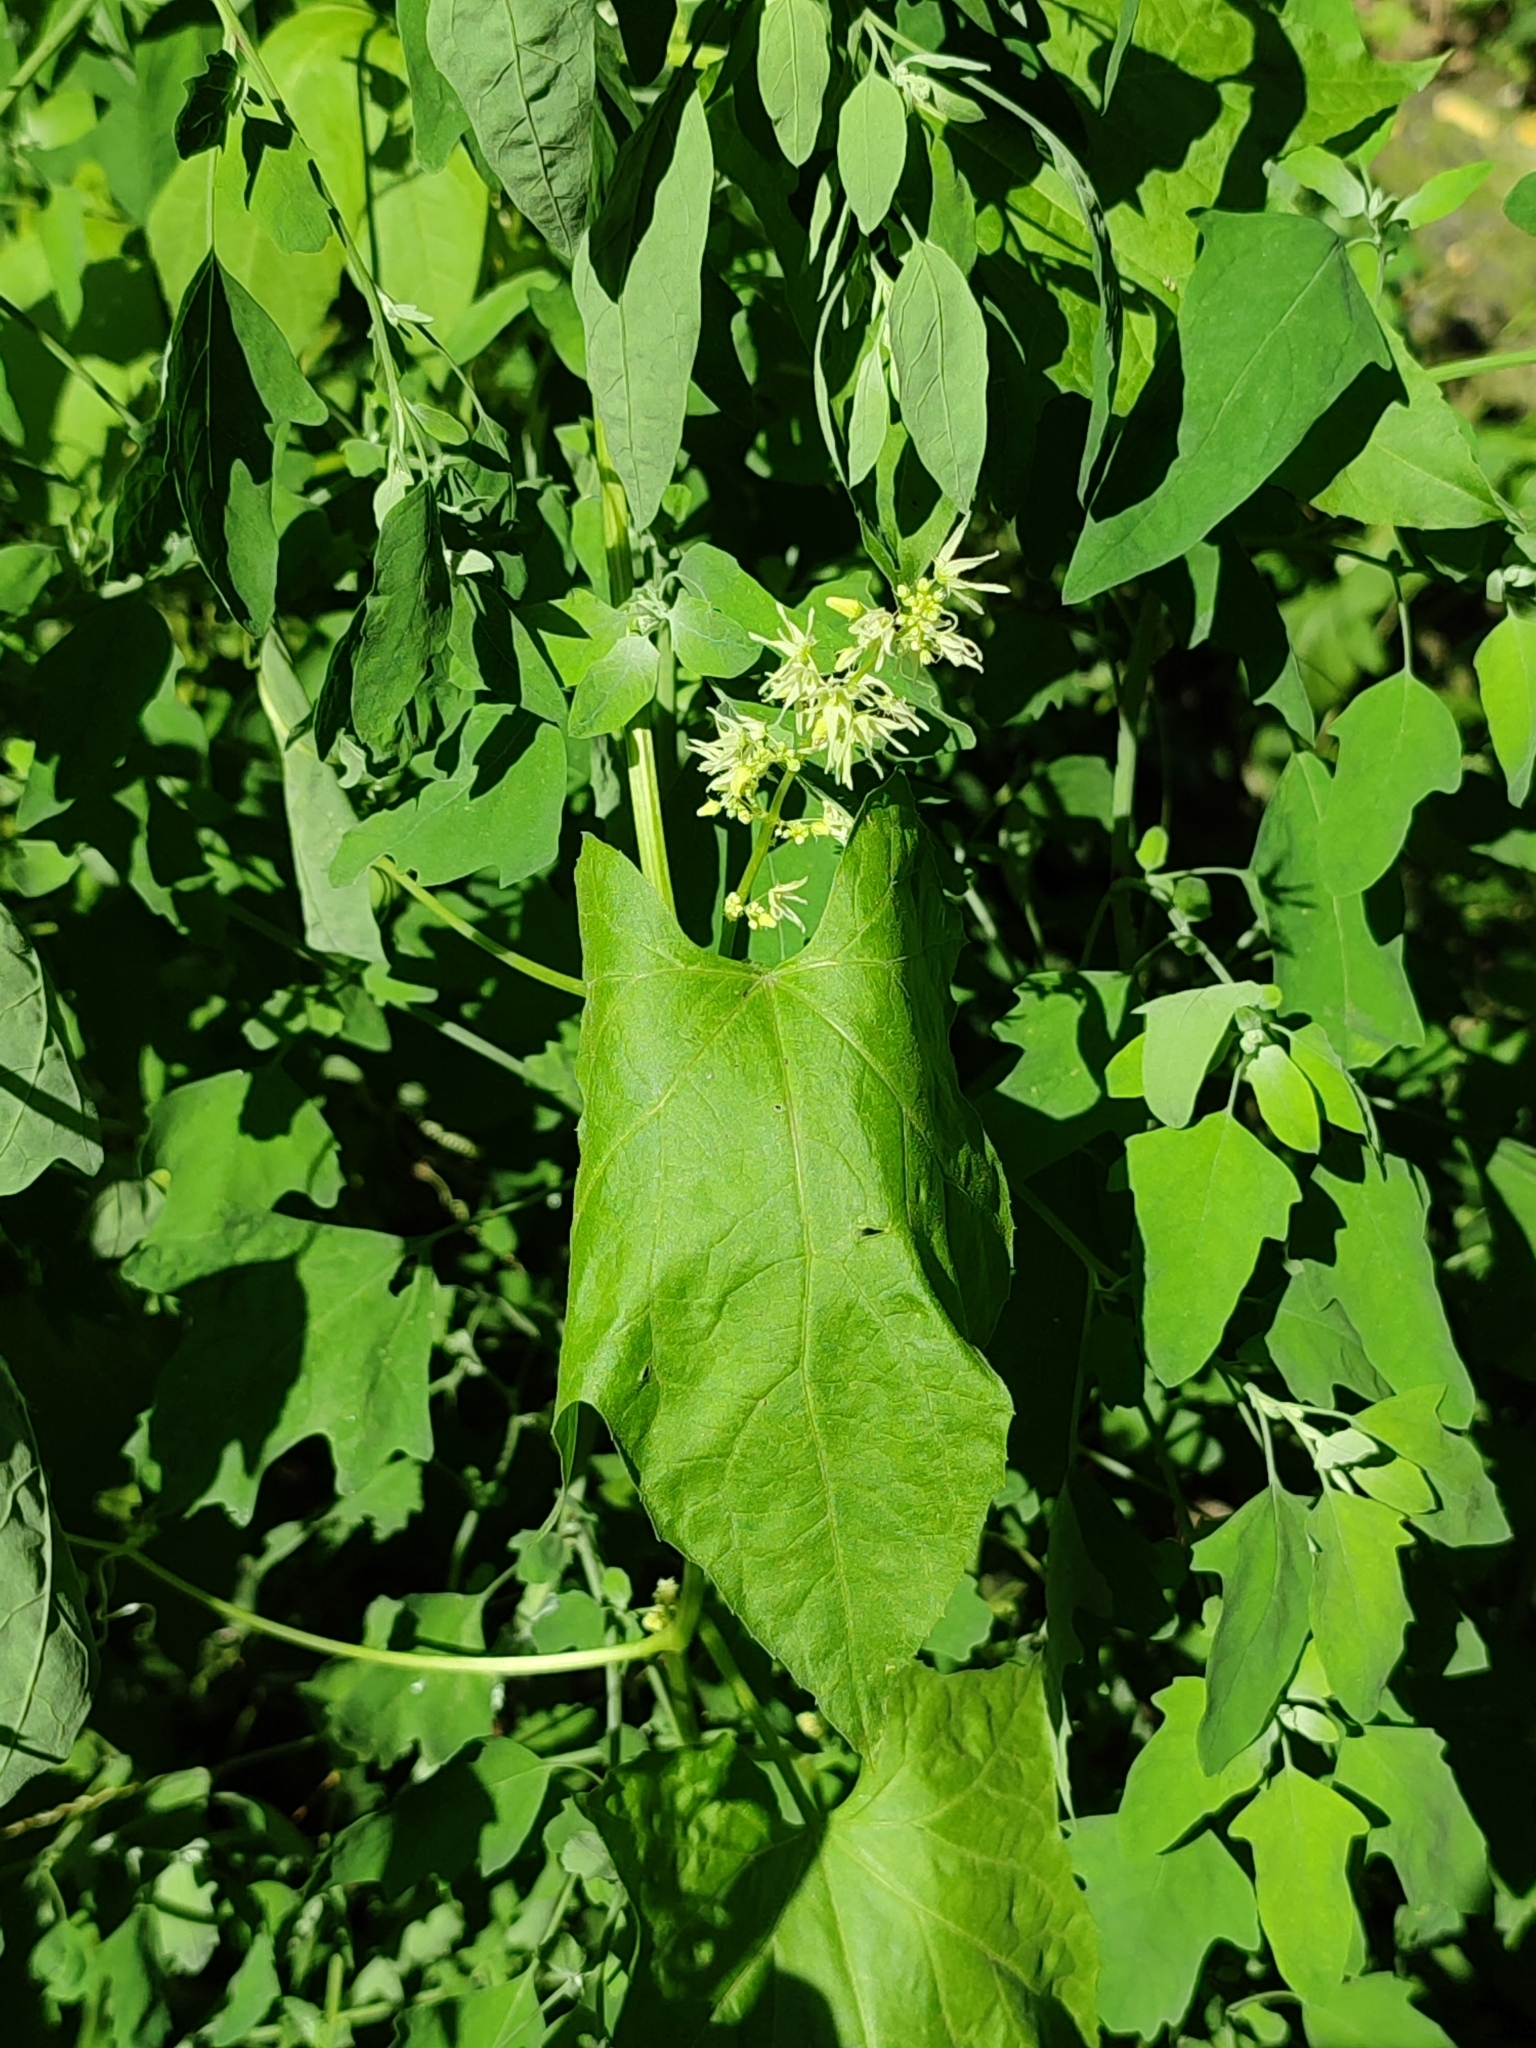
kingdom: Plantae
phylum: Tracheophyta
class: Magnoliopsida
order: Cucurbitales
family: Cucurbitaceae
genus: Echinocystis
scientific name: Echinocystis lobata
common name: Wild cucumber
